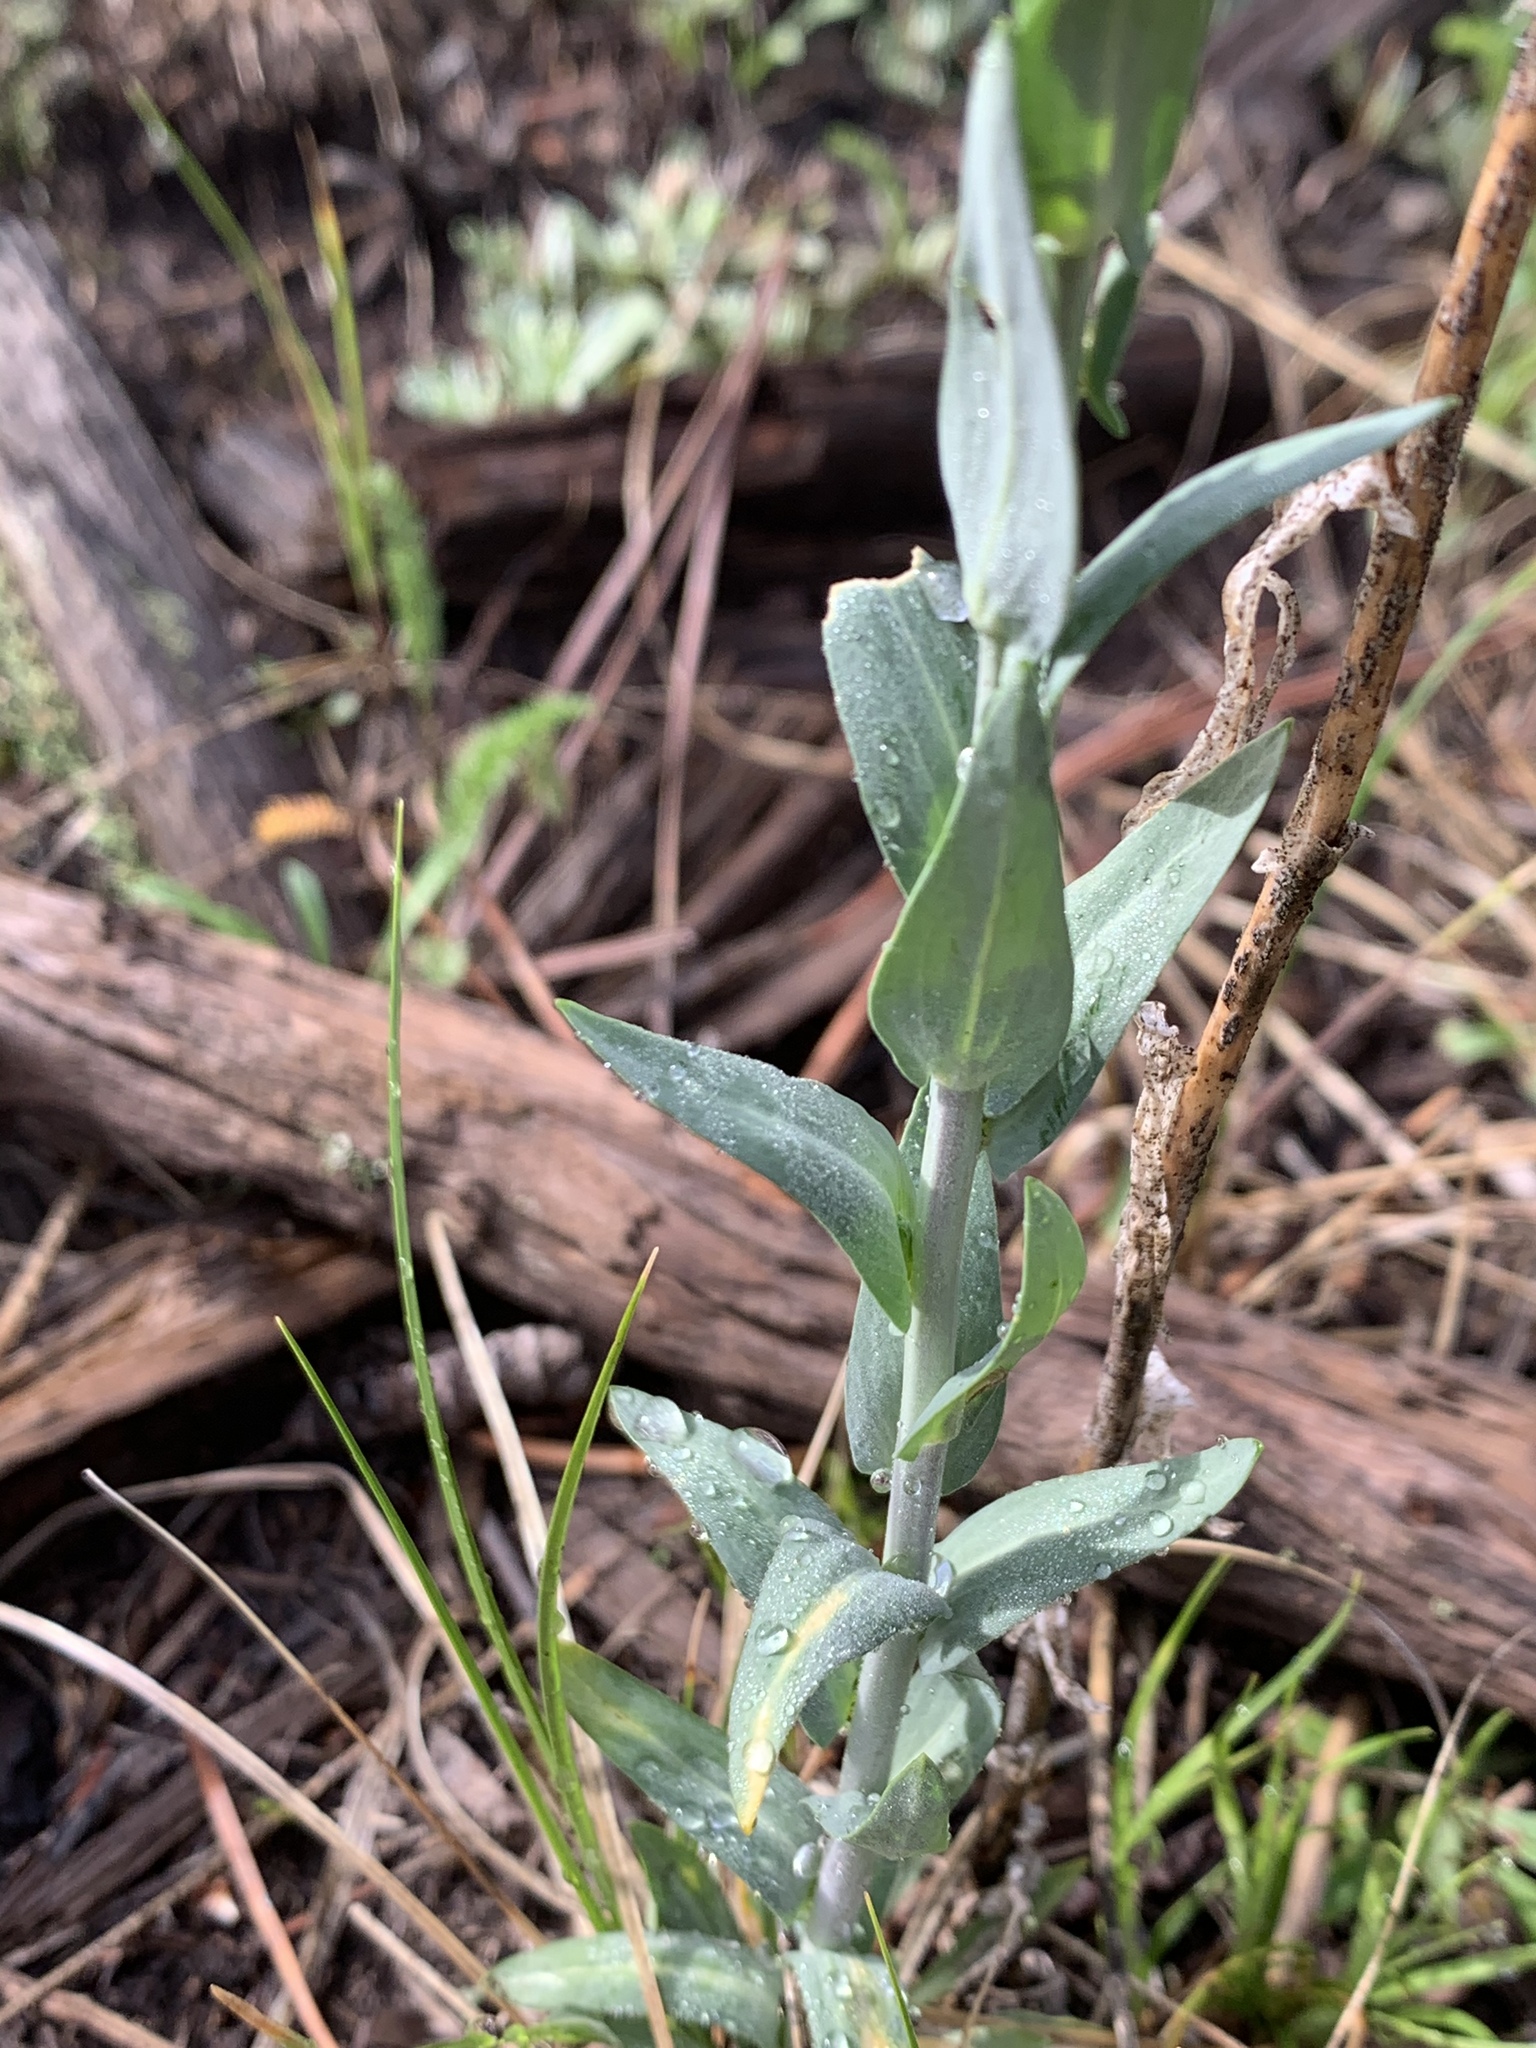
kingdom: Plantae
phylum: Tracheophyta
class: Magnoliopsida
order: Brassicales
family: Brassicaceae
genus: Boechera
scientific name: Boechera stricta
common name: Canadian rockcress
